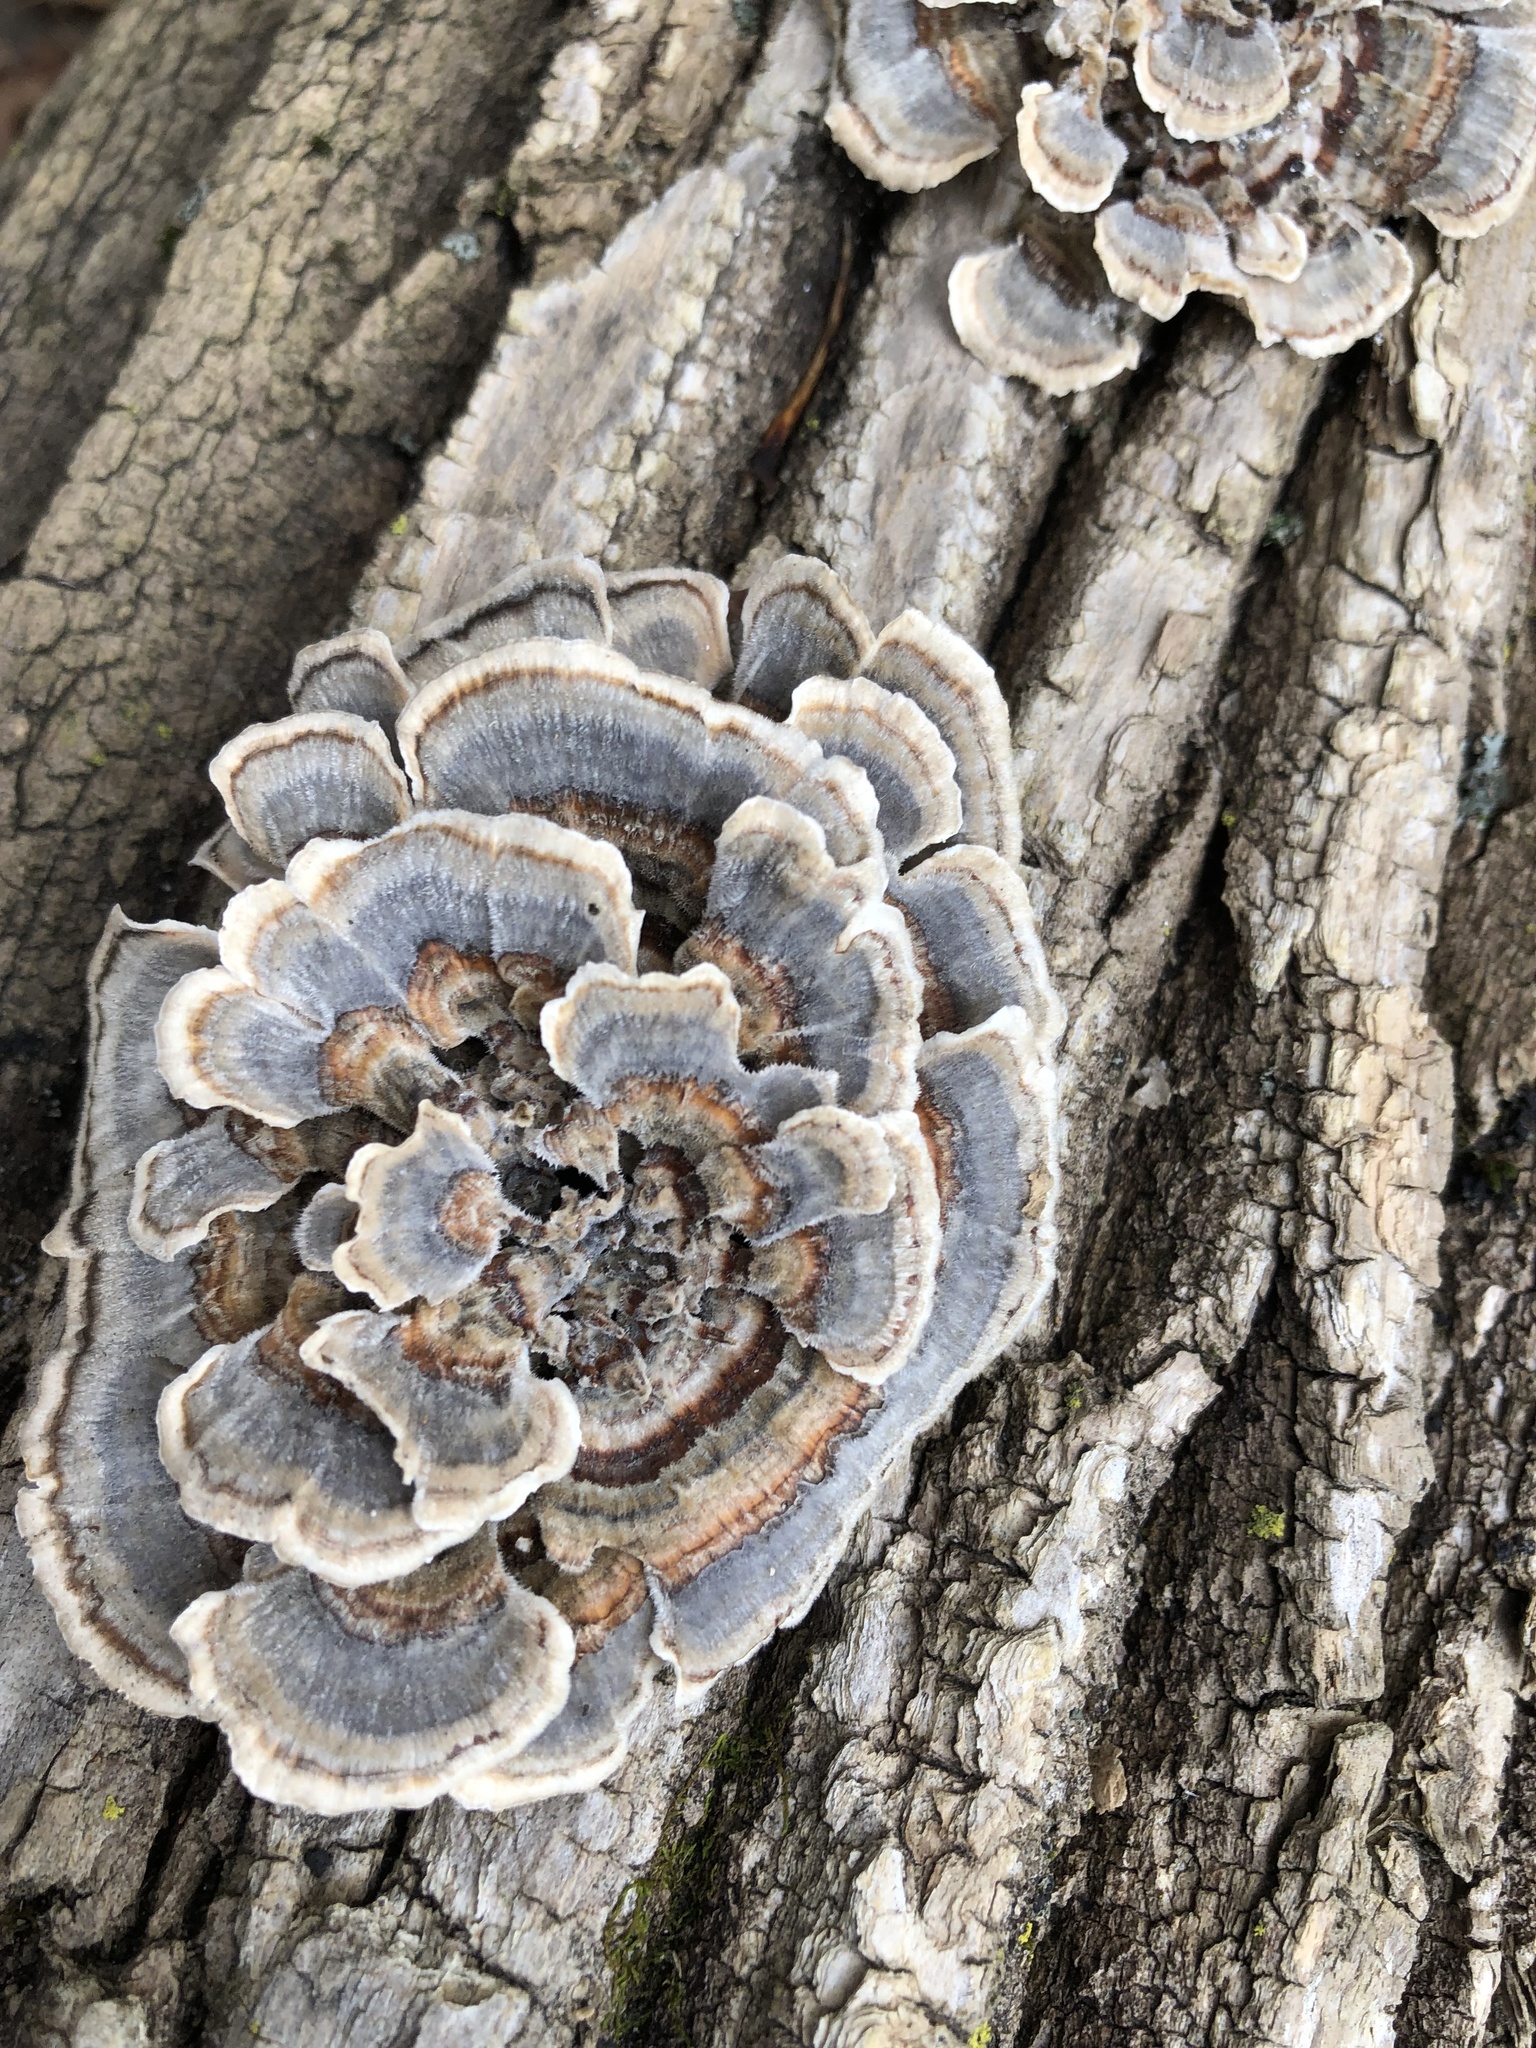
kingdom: Fungi
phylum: Basidiomycota
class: Agaricomycetes
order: Polyporales
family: Polyporaceae
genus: Trametes
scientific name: Trametes versicolor
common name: Turkeytail
